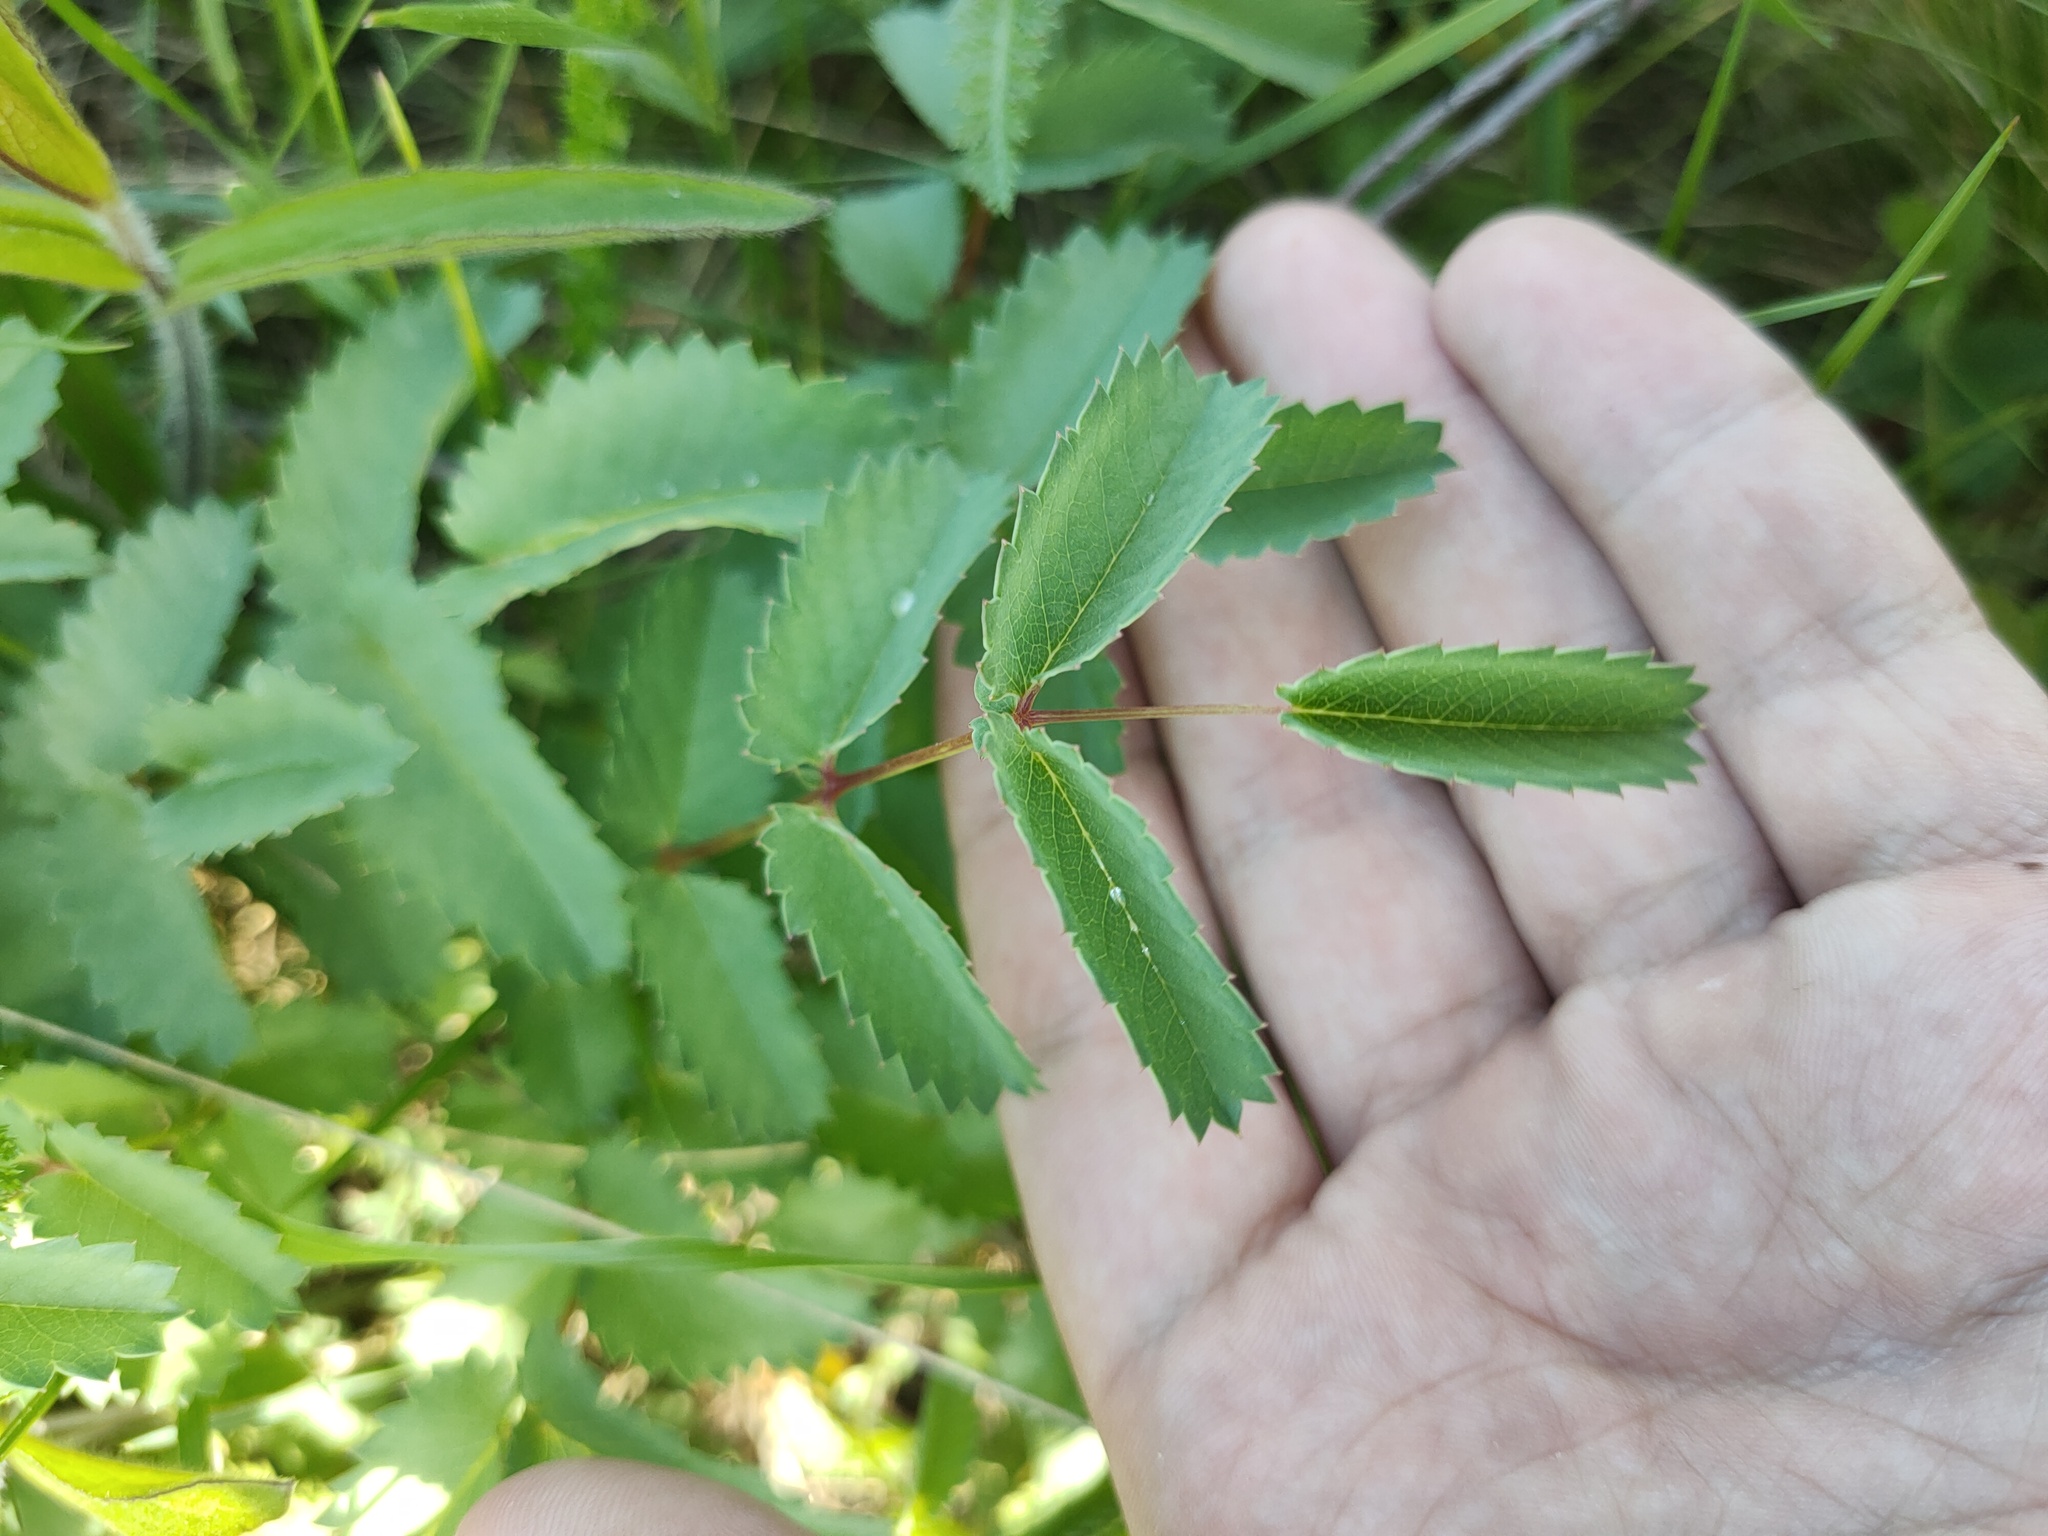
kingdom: Plantae
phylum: Tracheophyta
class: Magnoliopsida
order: Rosales
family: Rosaceae
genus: Sanguisorba
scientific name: Sanguisorba officinalis
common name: Great burnet
